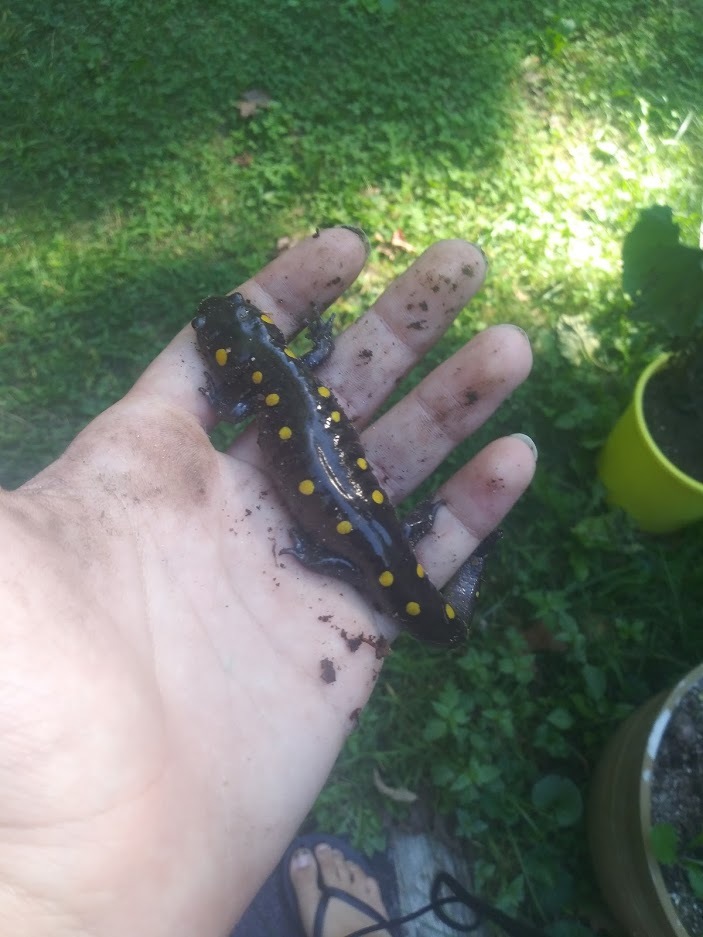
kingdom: Animalia
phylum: Chordata
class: Amphibia
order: Caudata
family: Ambystomatidae
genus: Ambystoma
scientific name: Ambystoma maculatum
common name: Spotted salamander
